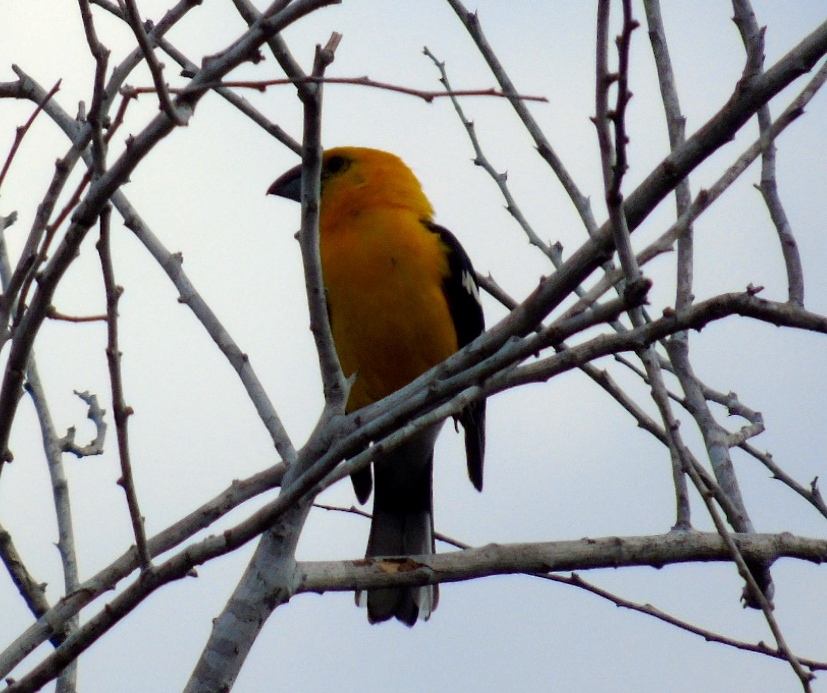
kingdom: Animalia
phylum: Chordata
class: Aves
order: Passeriformes
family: Cardinalidae
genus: Pheucticus
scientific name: Pheucticus chrysopeplus
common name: Yellow grosbeak
